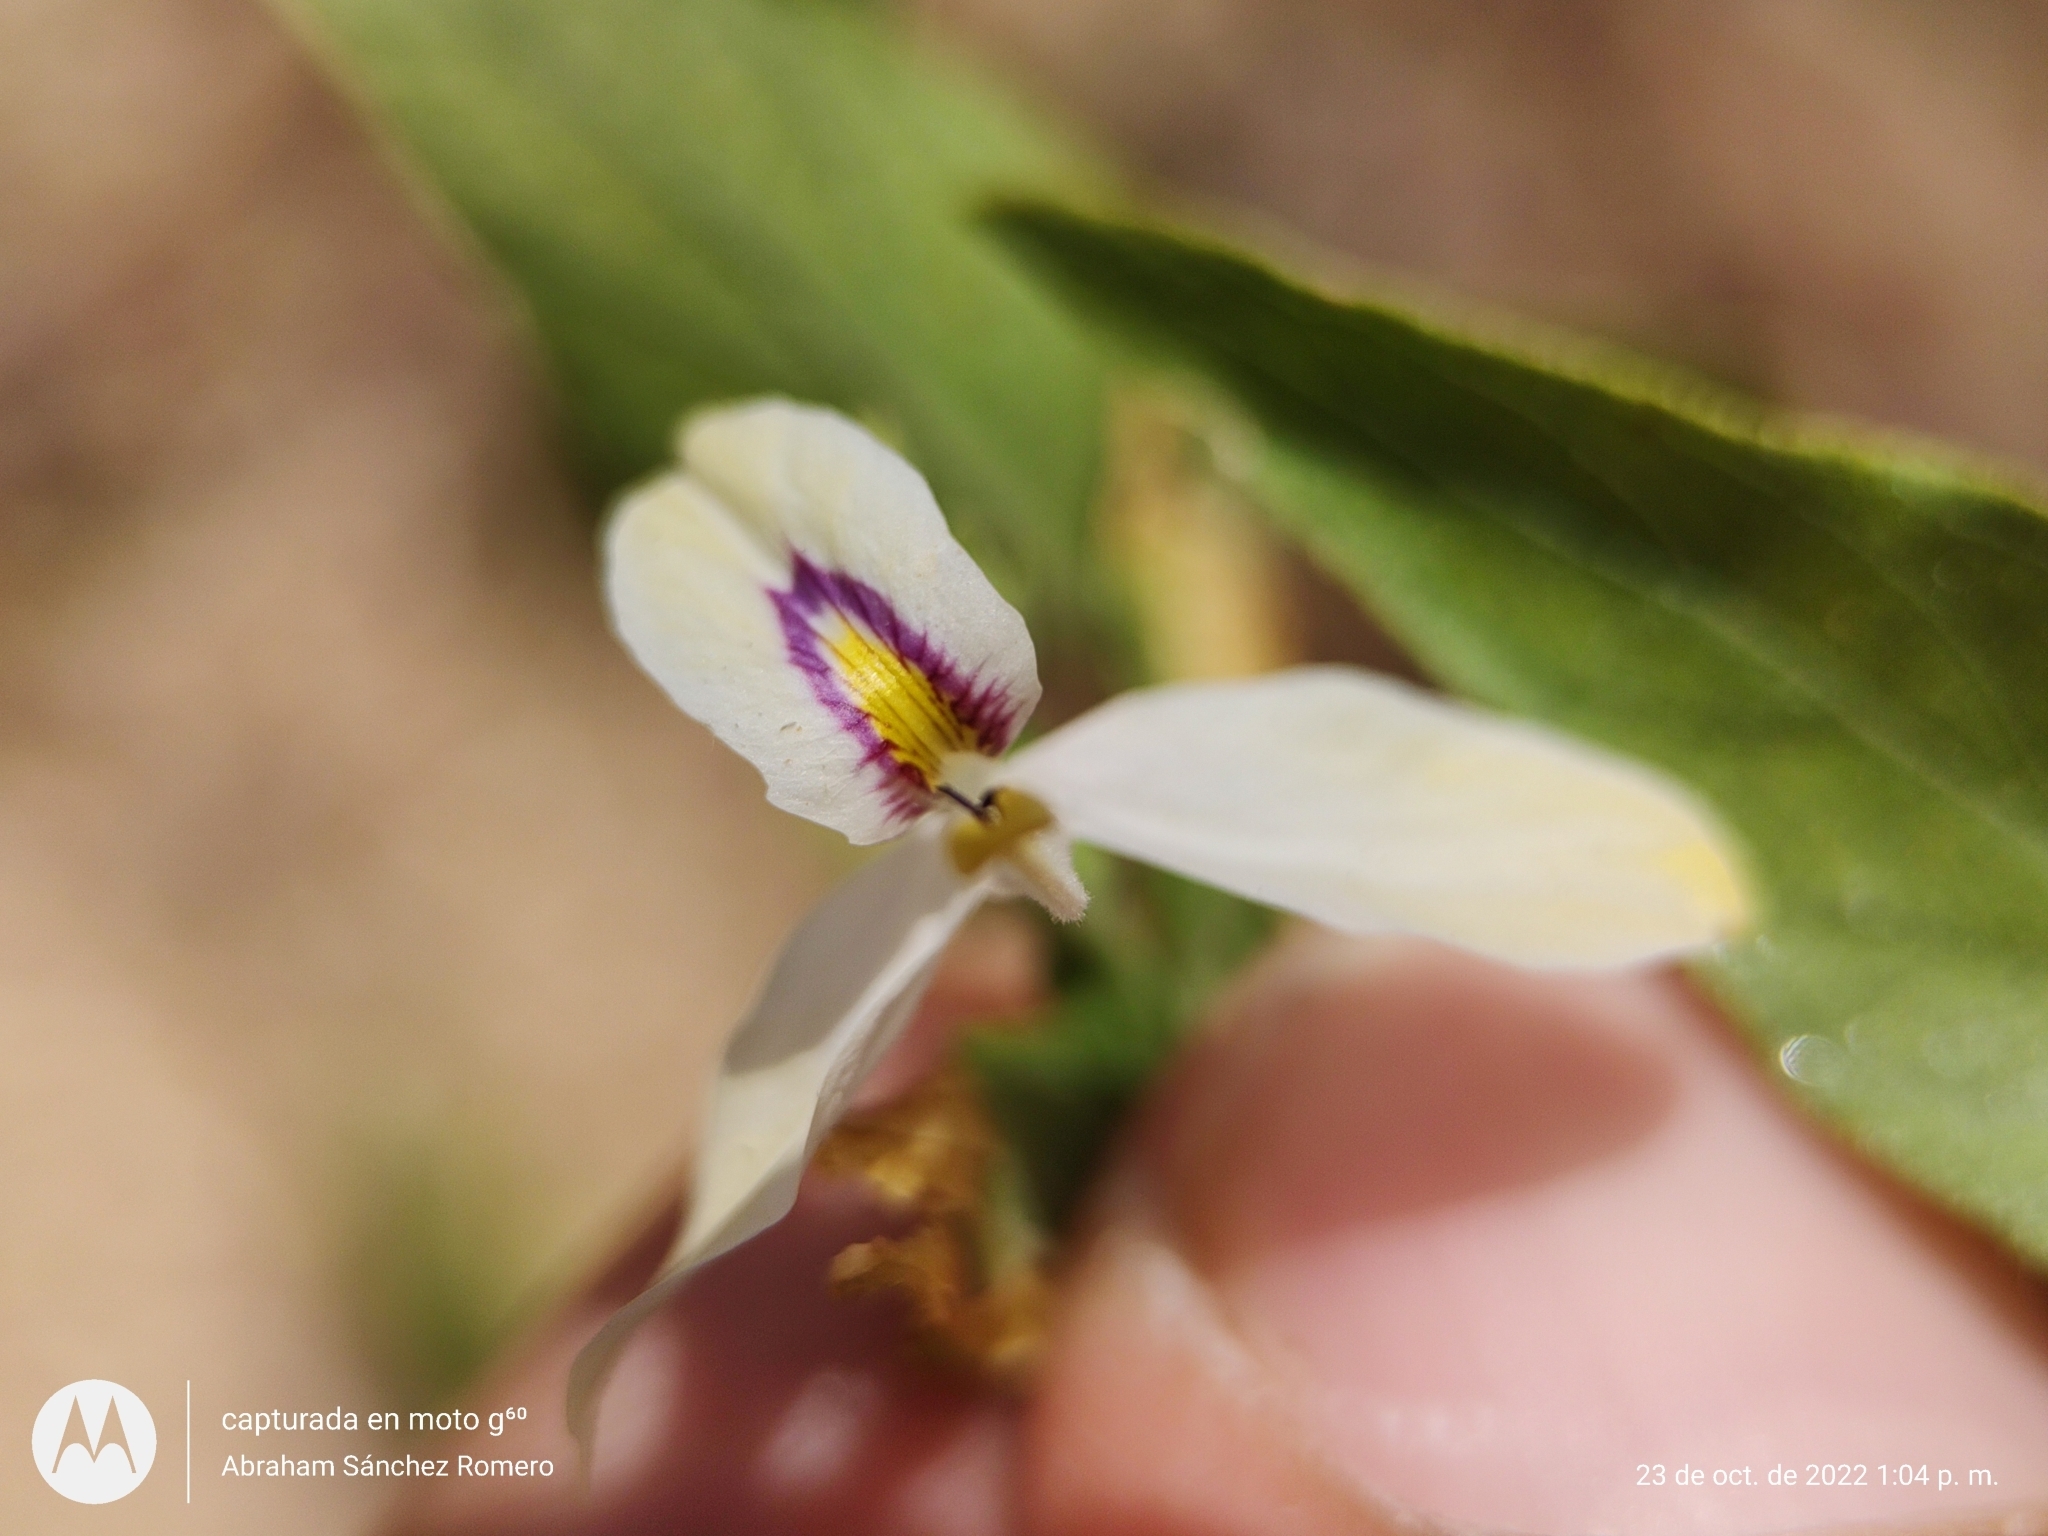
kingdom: Plantae
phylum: Tracheophyta
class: Magnoliopsida
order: Lamiales
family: Acanthaceae
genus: Carlowrightia
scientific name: Carlowrightia arizonica
